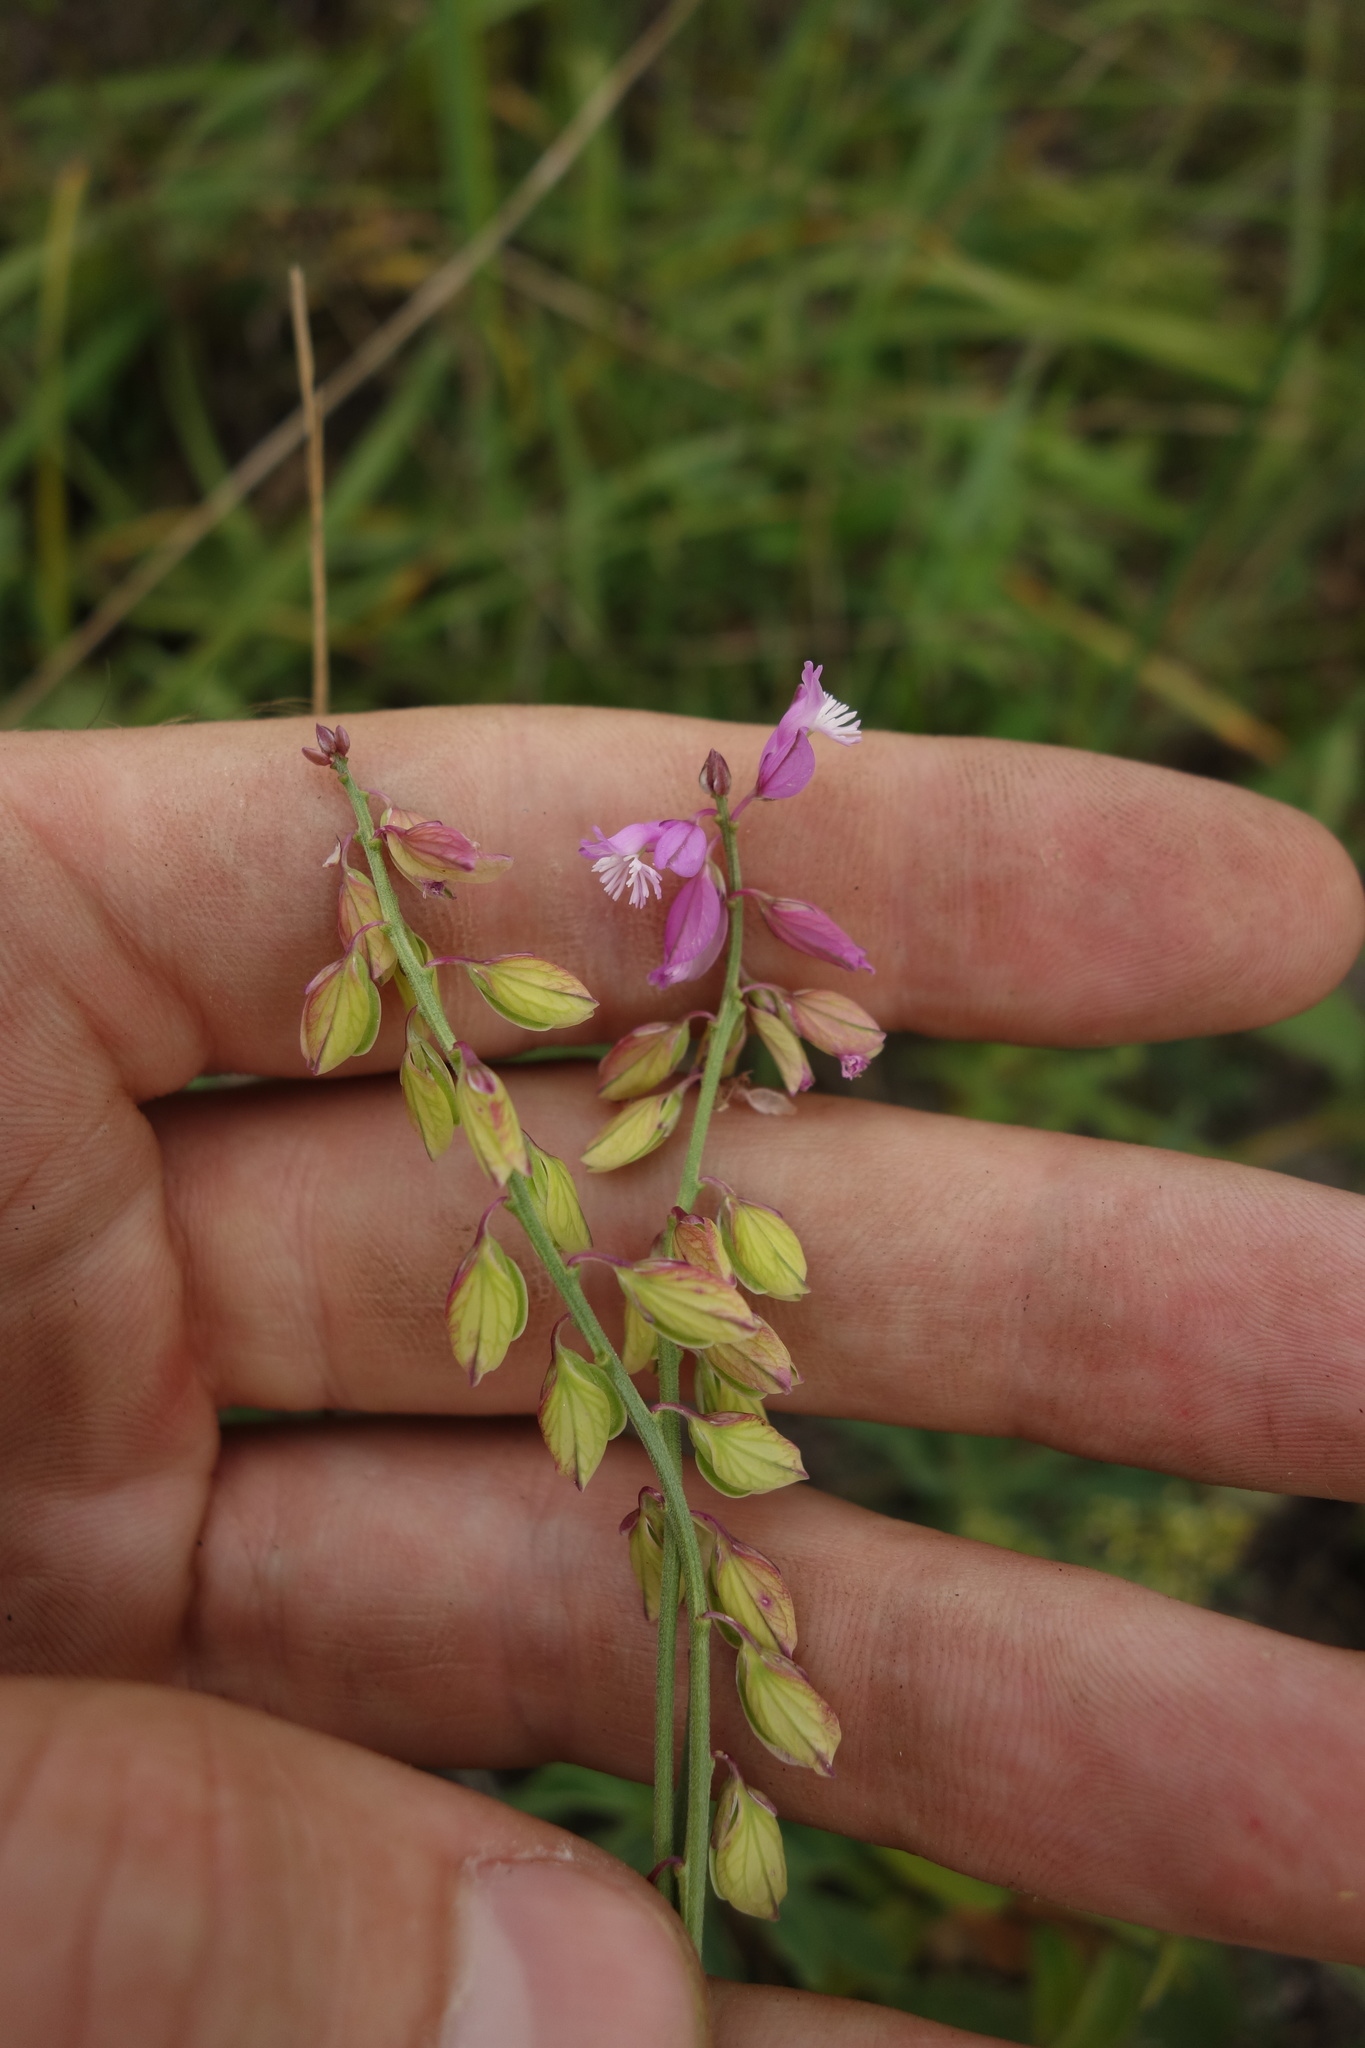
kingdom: Plantae
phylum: Tracheophyta
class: Magnoliopsida
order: Fabales
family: Polygalaceae
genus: Polygala
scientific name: Polygala nicaeensis
